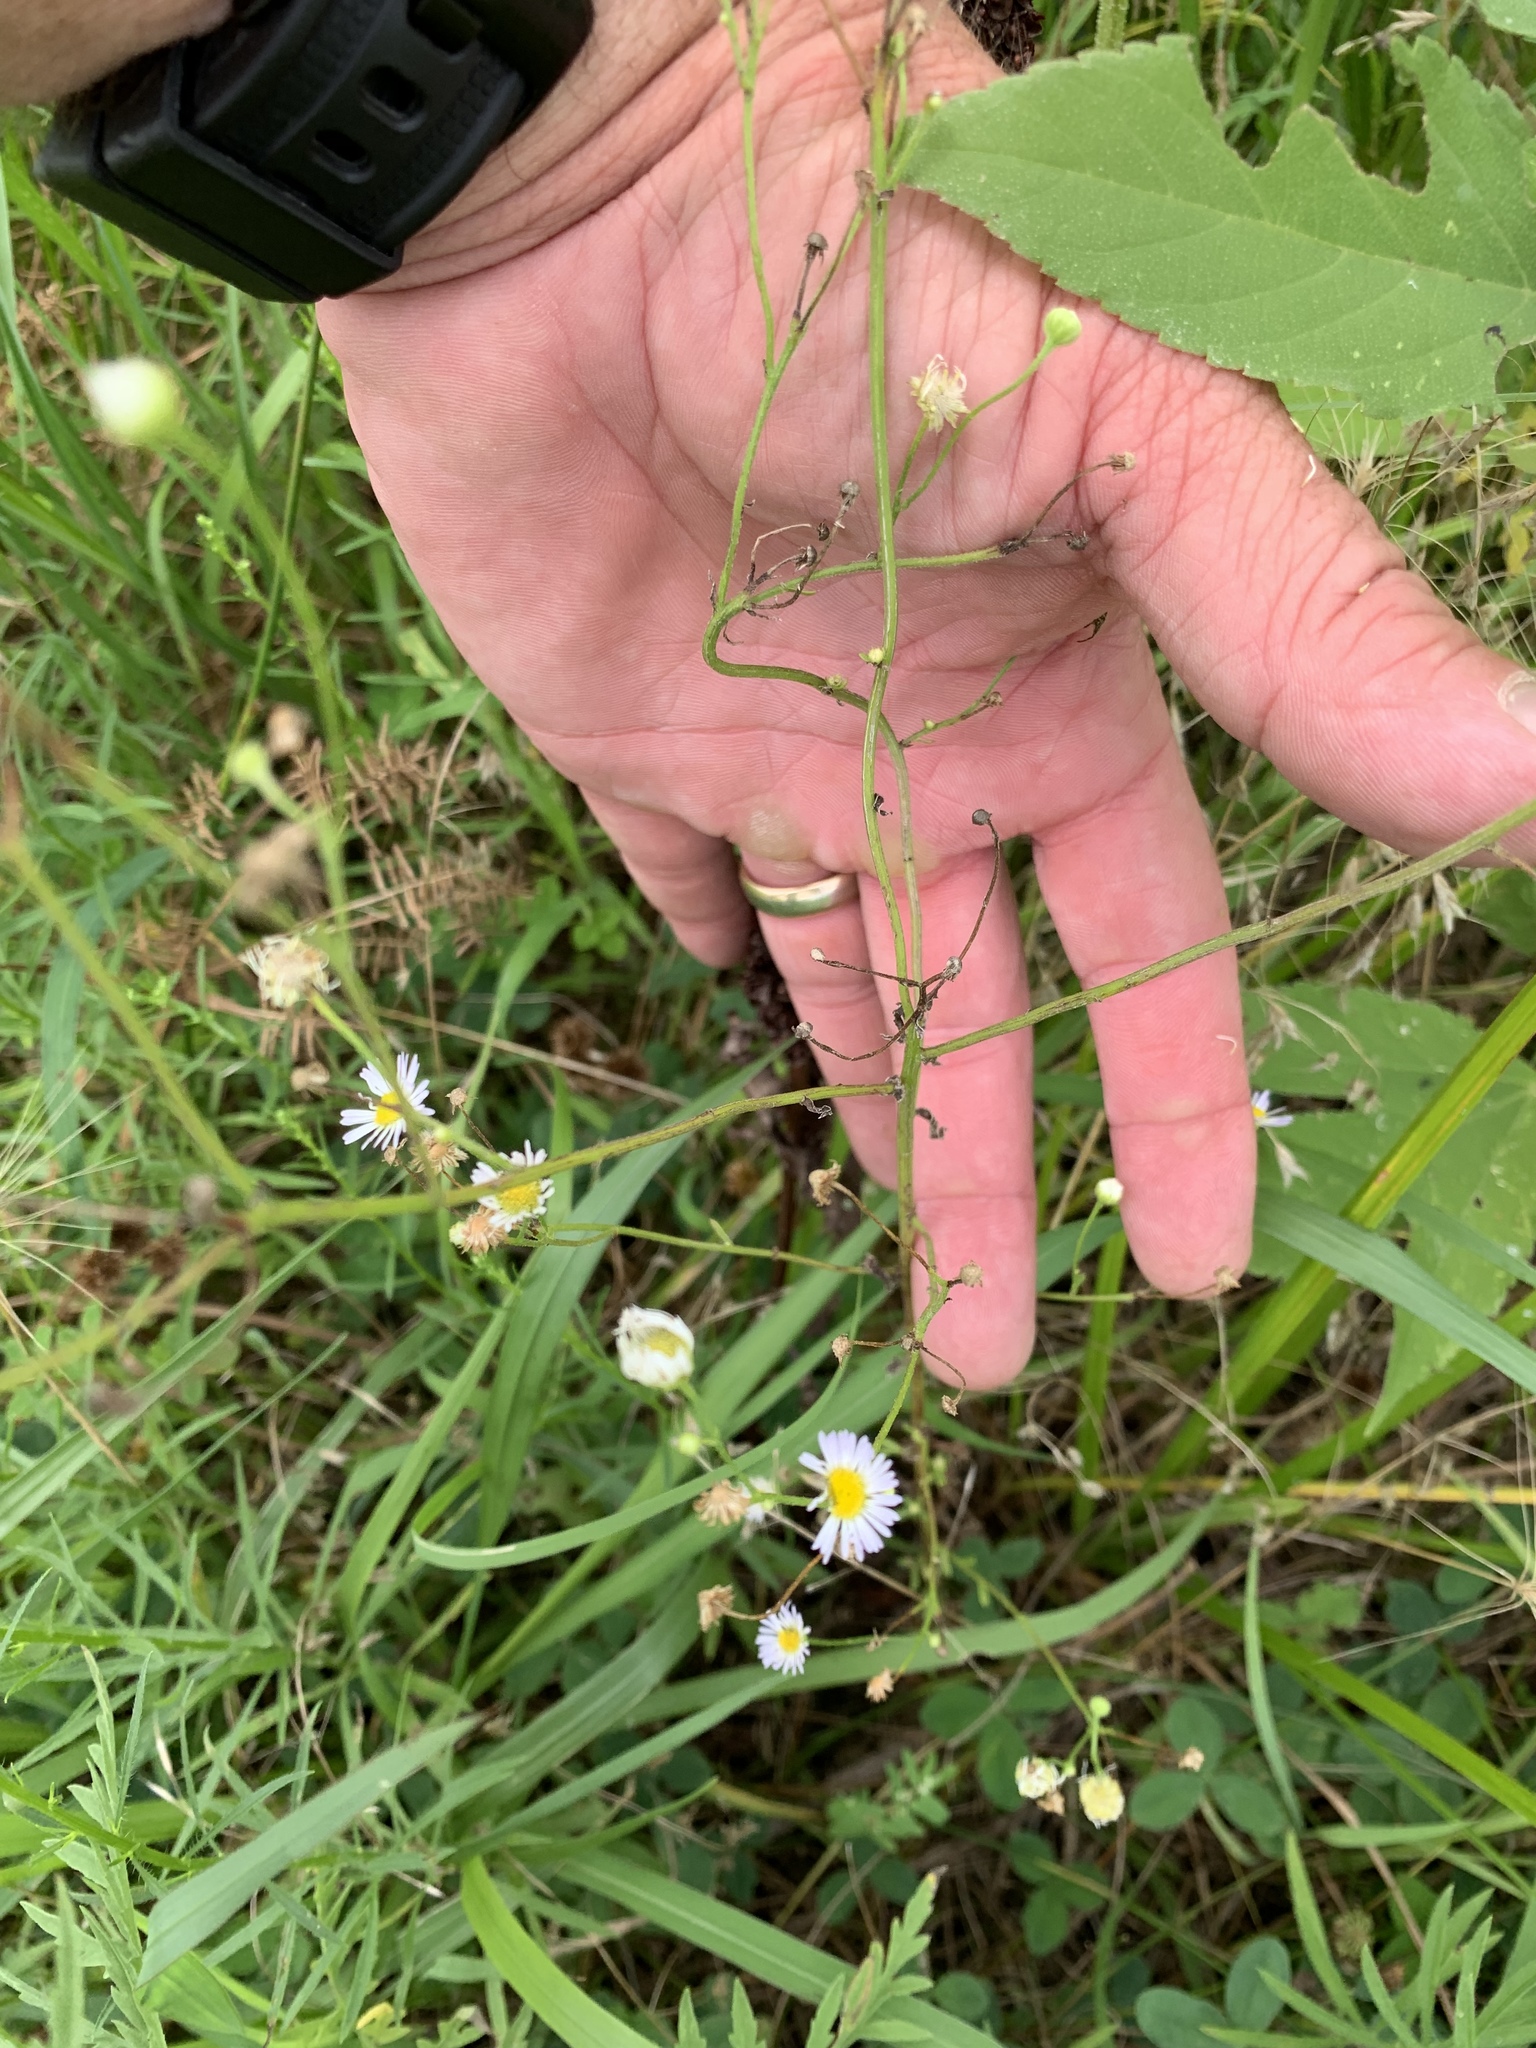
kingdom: Plantae
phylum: Tracheophyta
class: Magnoliopsida
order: Asterales
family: Asteraceae
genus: Erigeron
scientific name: Erigeron strigosus
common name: Common eastern fleabane
